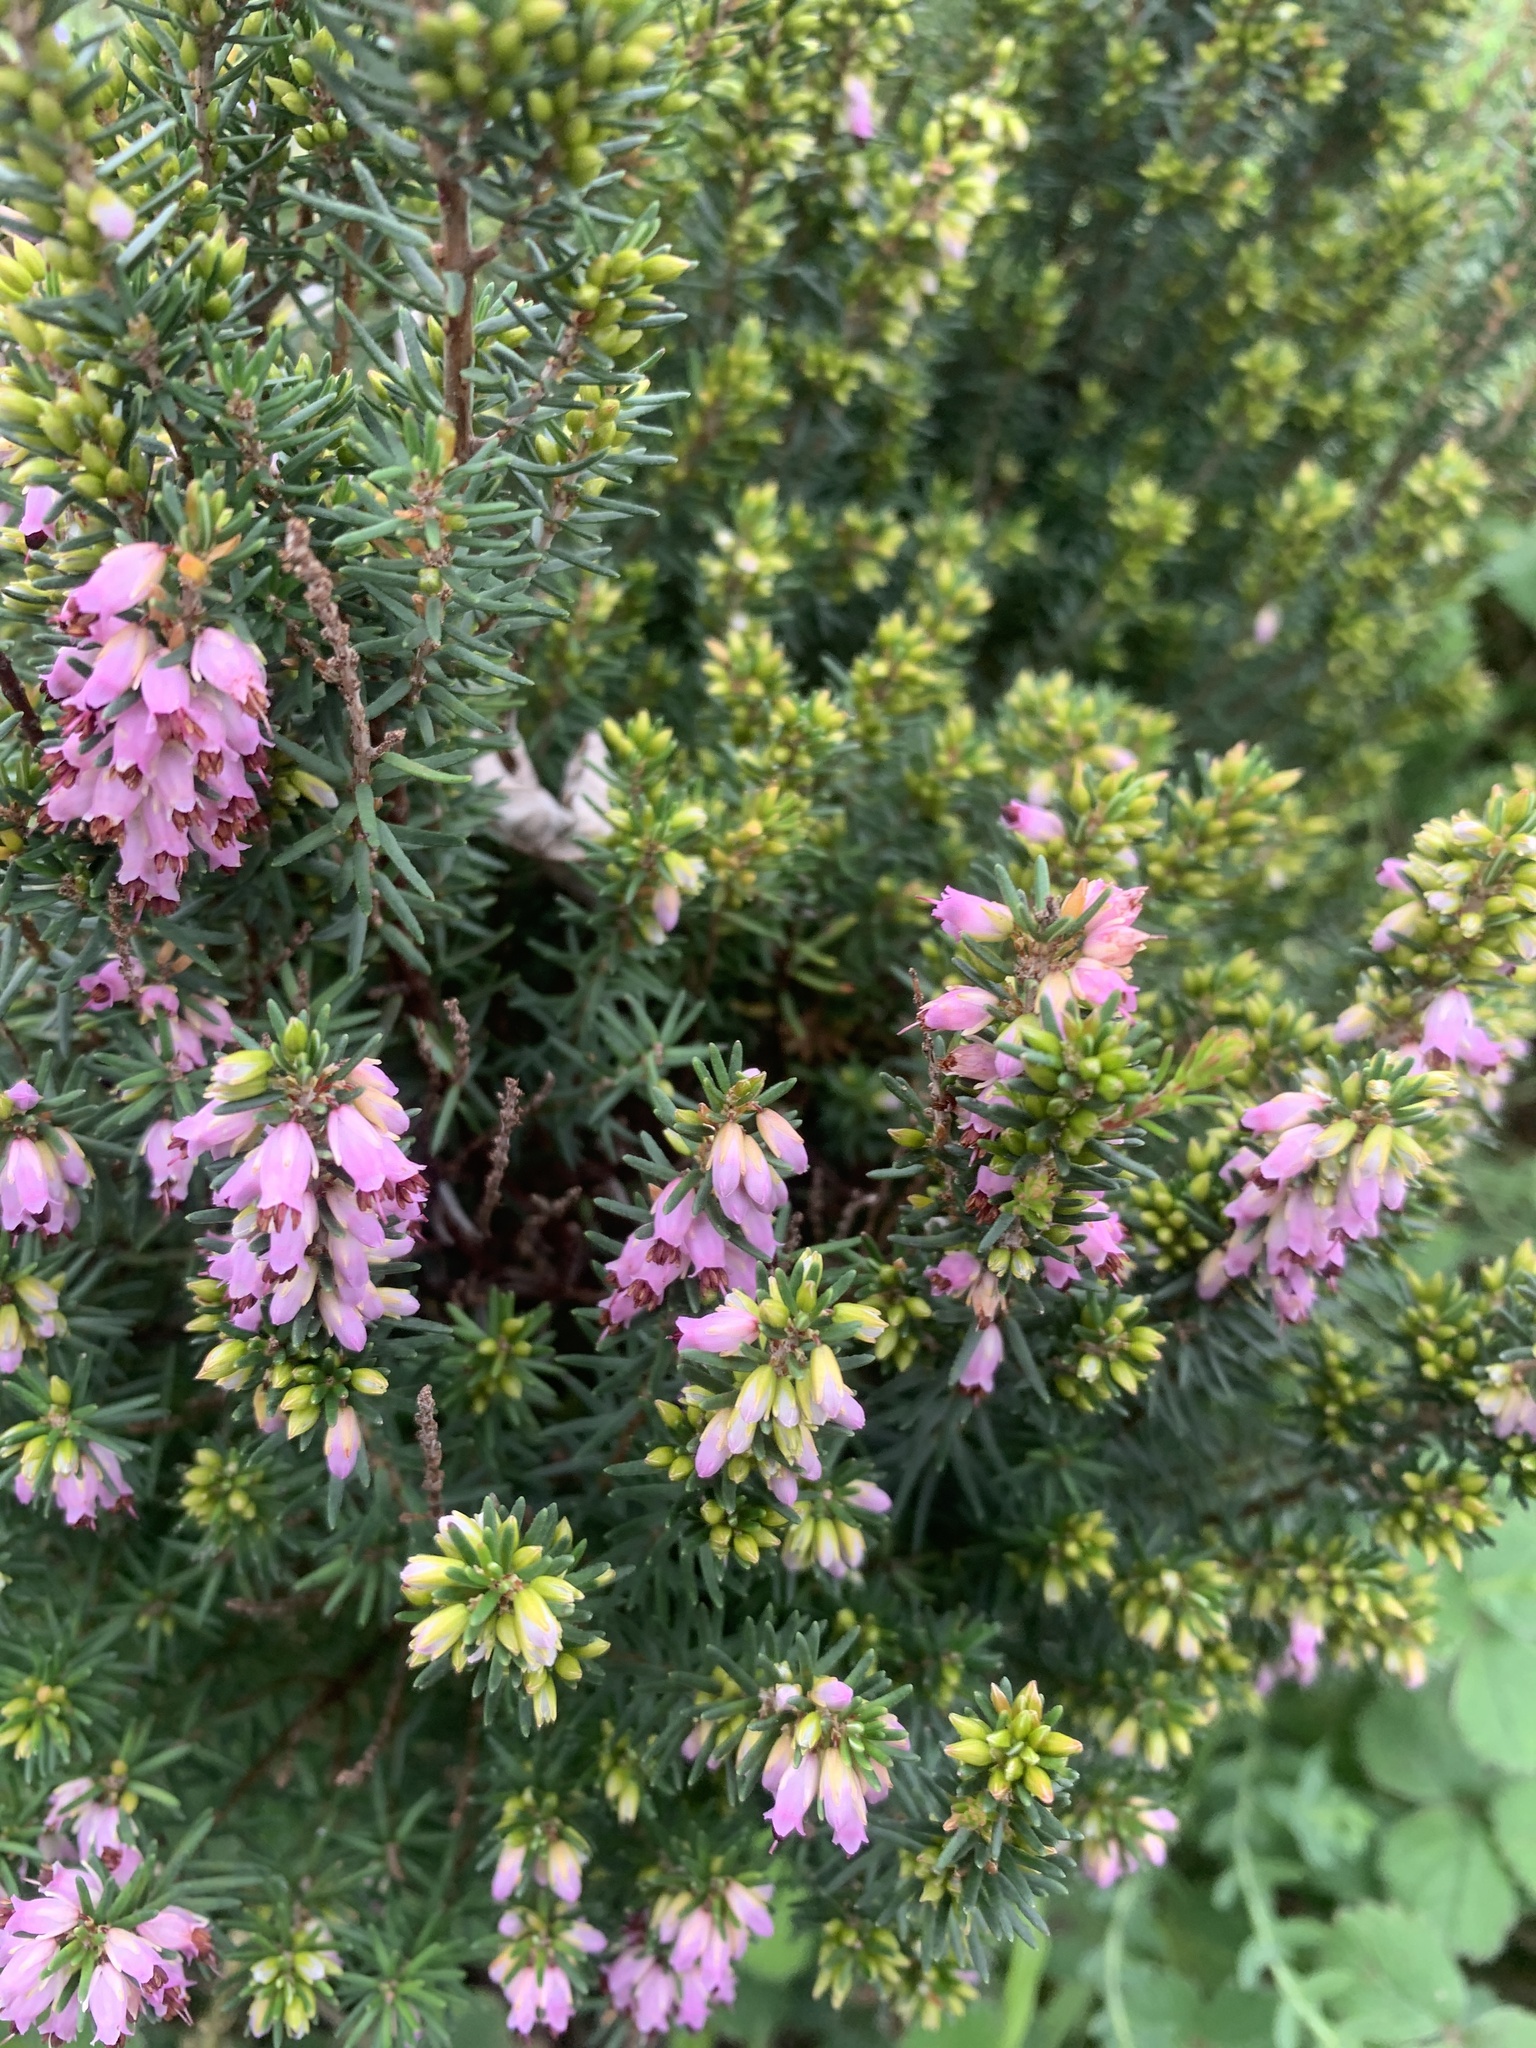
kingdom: Plantae
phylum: Tracheophyta
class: Magnoliopsida
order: Ericales
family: Ericaceae
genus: Erica
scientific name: Erica carnea
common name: Winter heath
